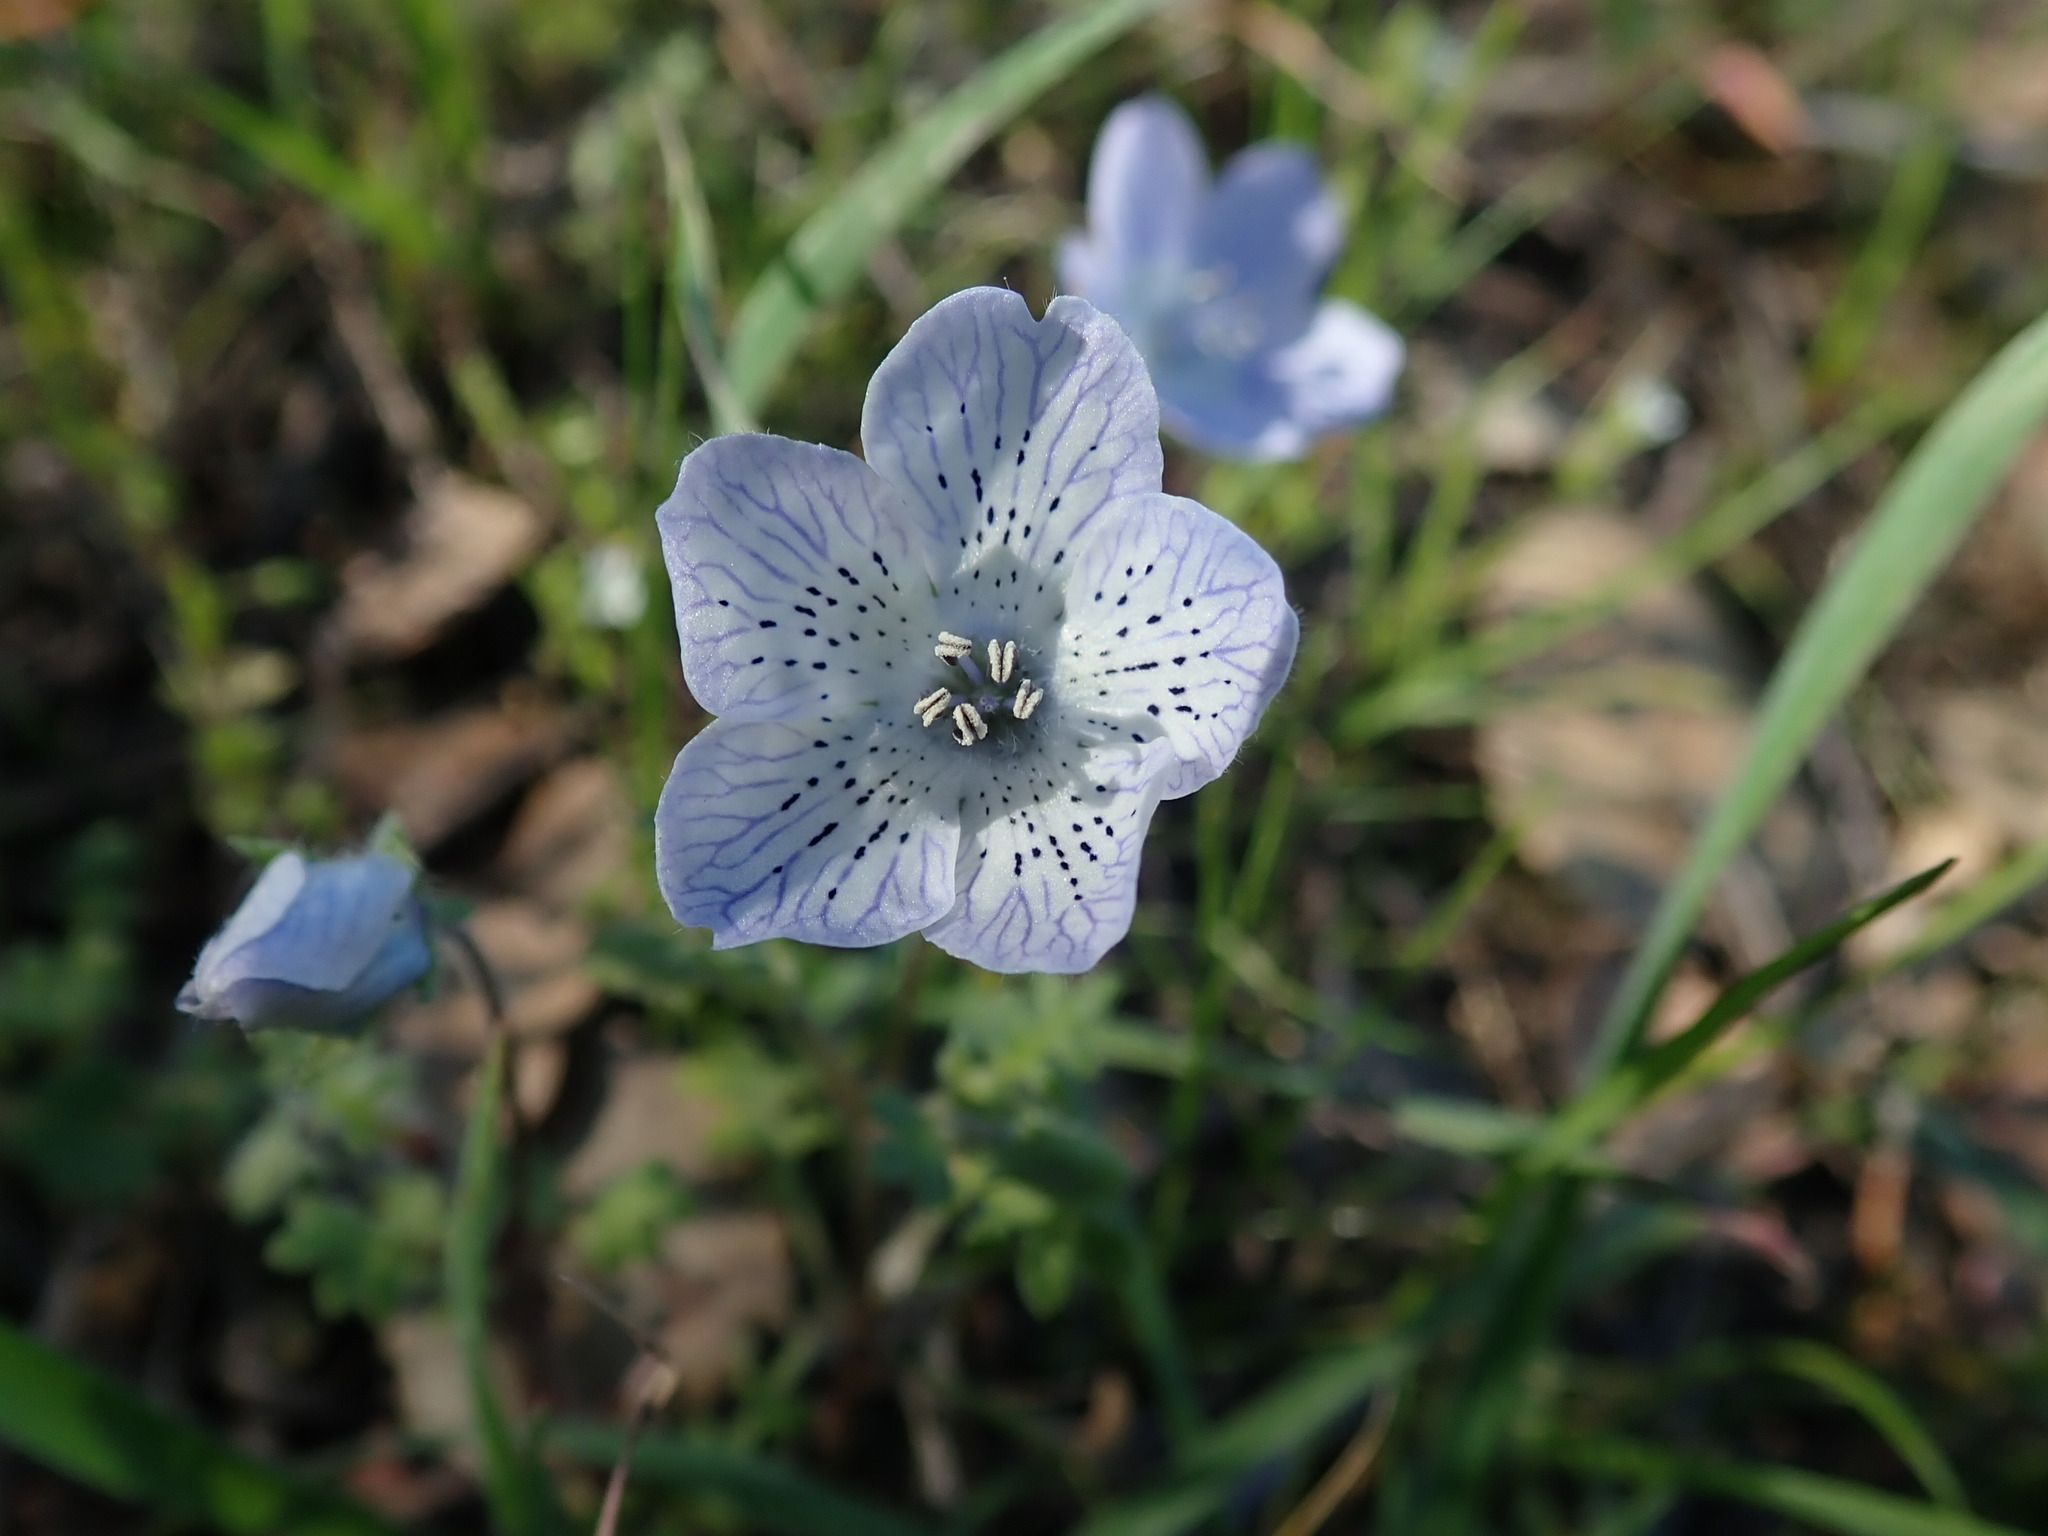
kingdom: Plantae
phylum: Tracheophyta
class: Magnoliopsida
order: Boraginales
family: Hydrophyllaceae
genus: Nemophila
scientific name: Nemophila menziesii
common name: Baby's-blue-eyes
